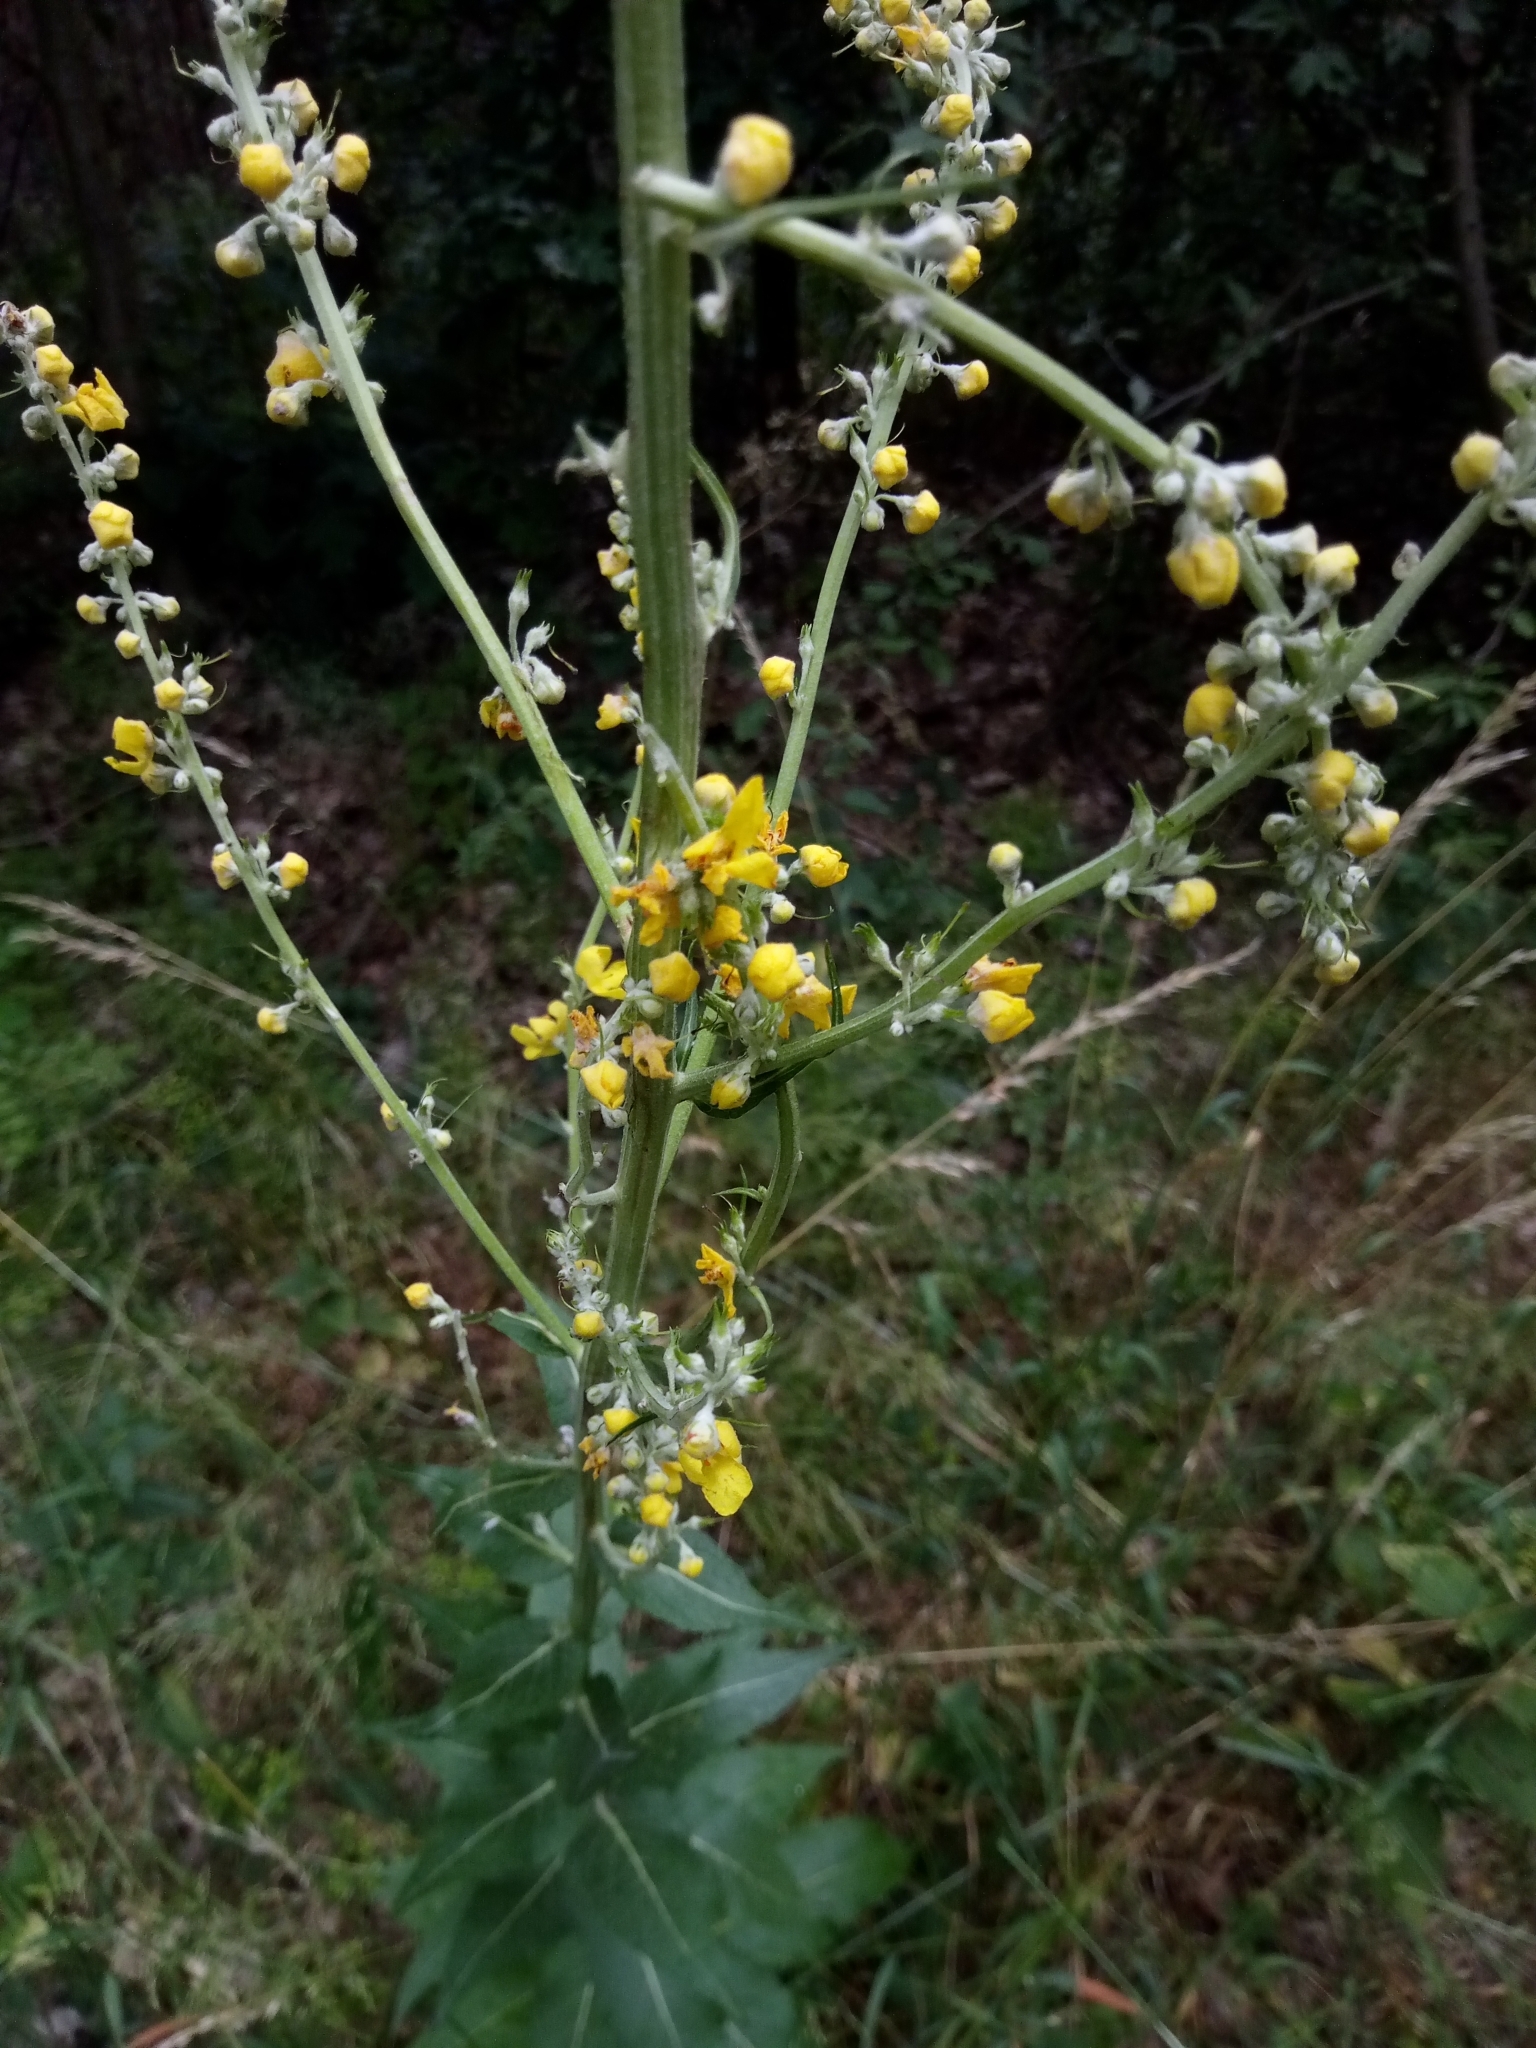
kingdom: Plantae
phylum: Tracheophyta
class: Magnoliopsida
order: Lamiales
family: Scrophulariaceae
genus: Verbascum
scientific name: Verbascum lychnitis
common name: White mullein
